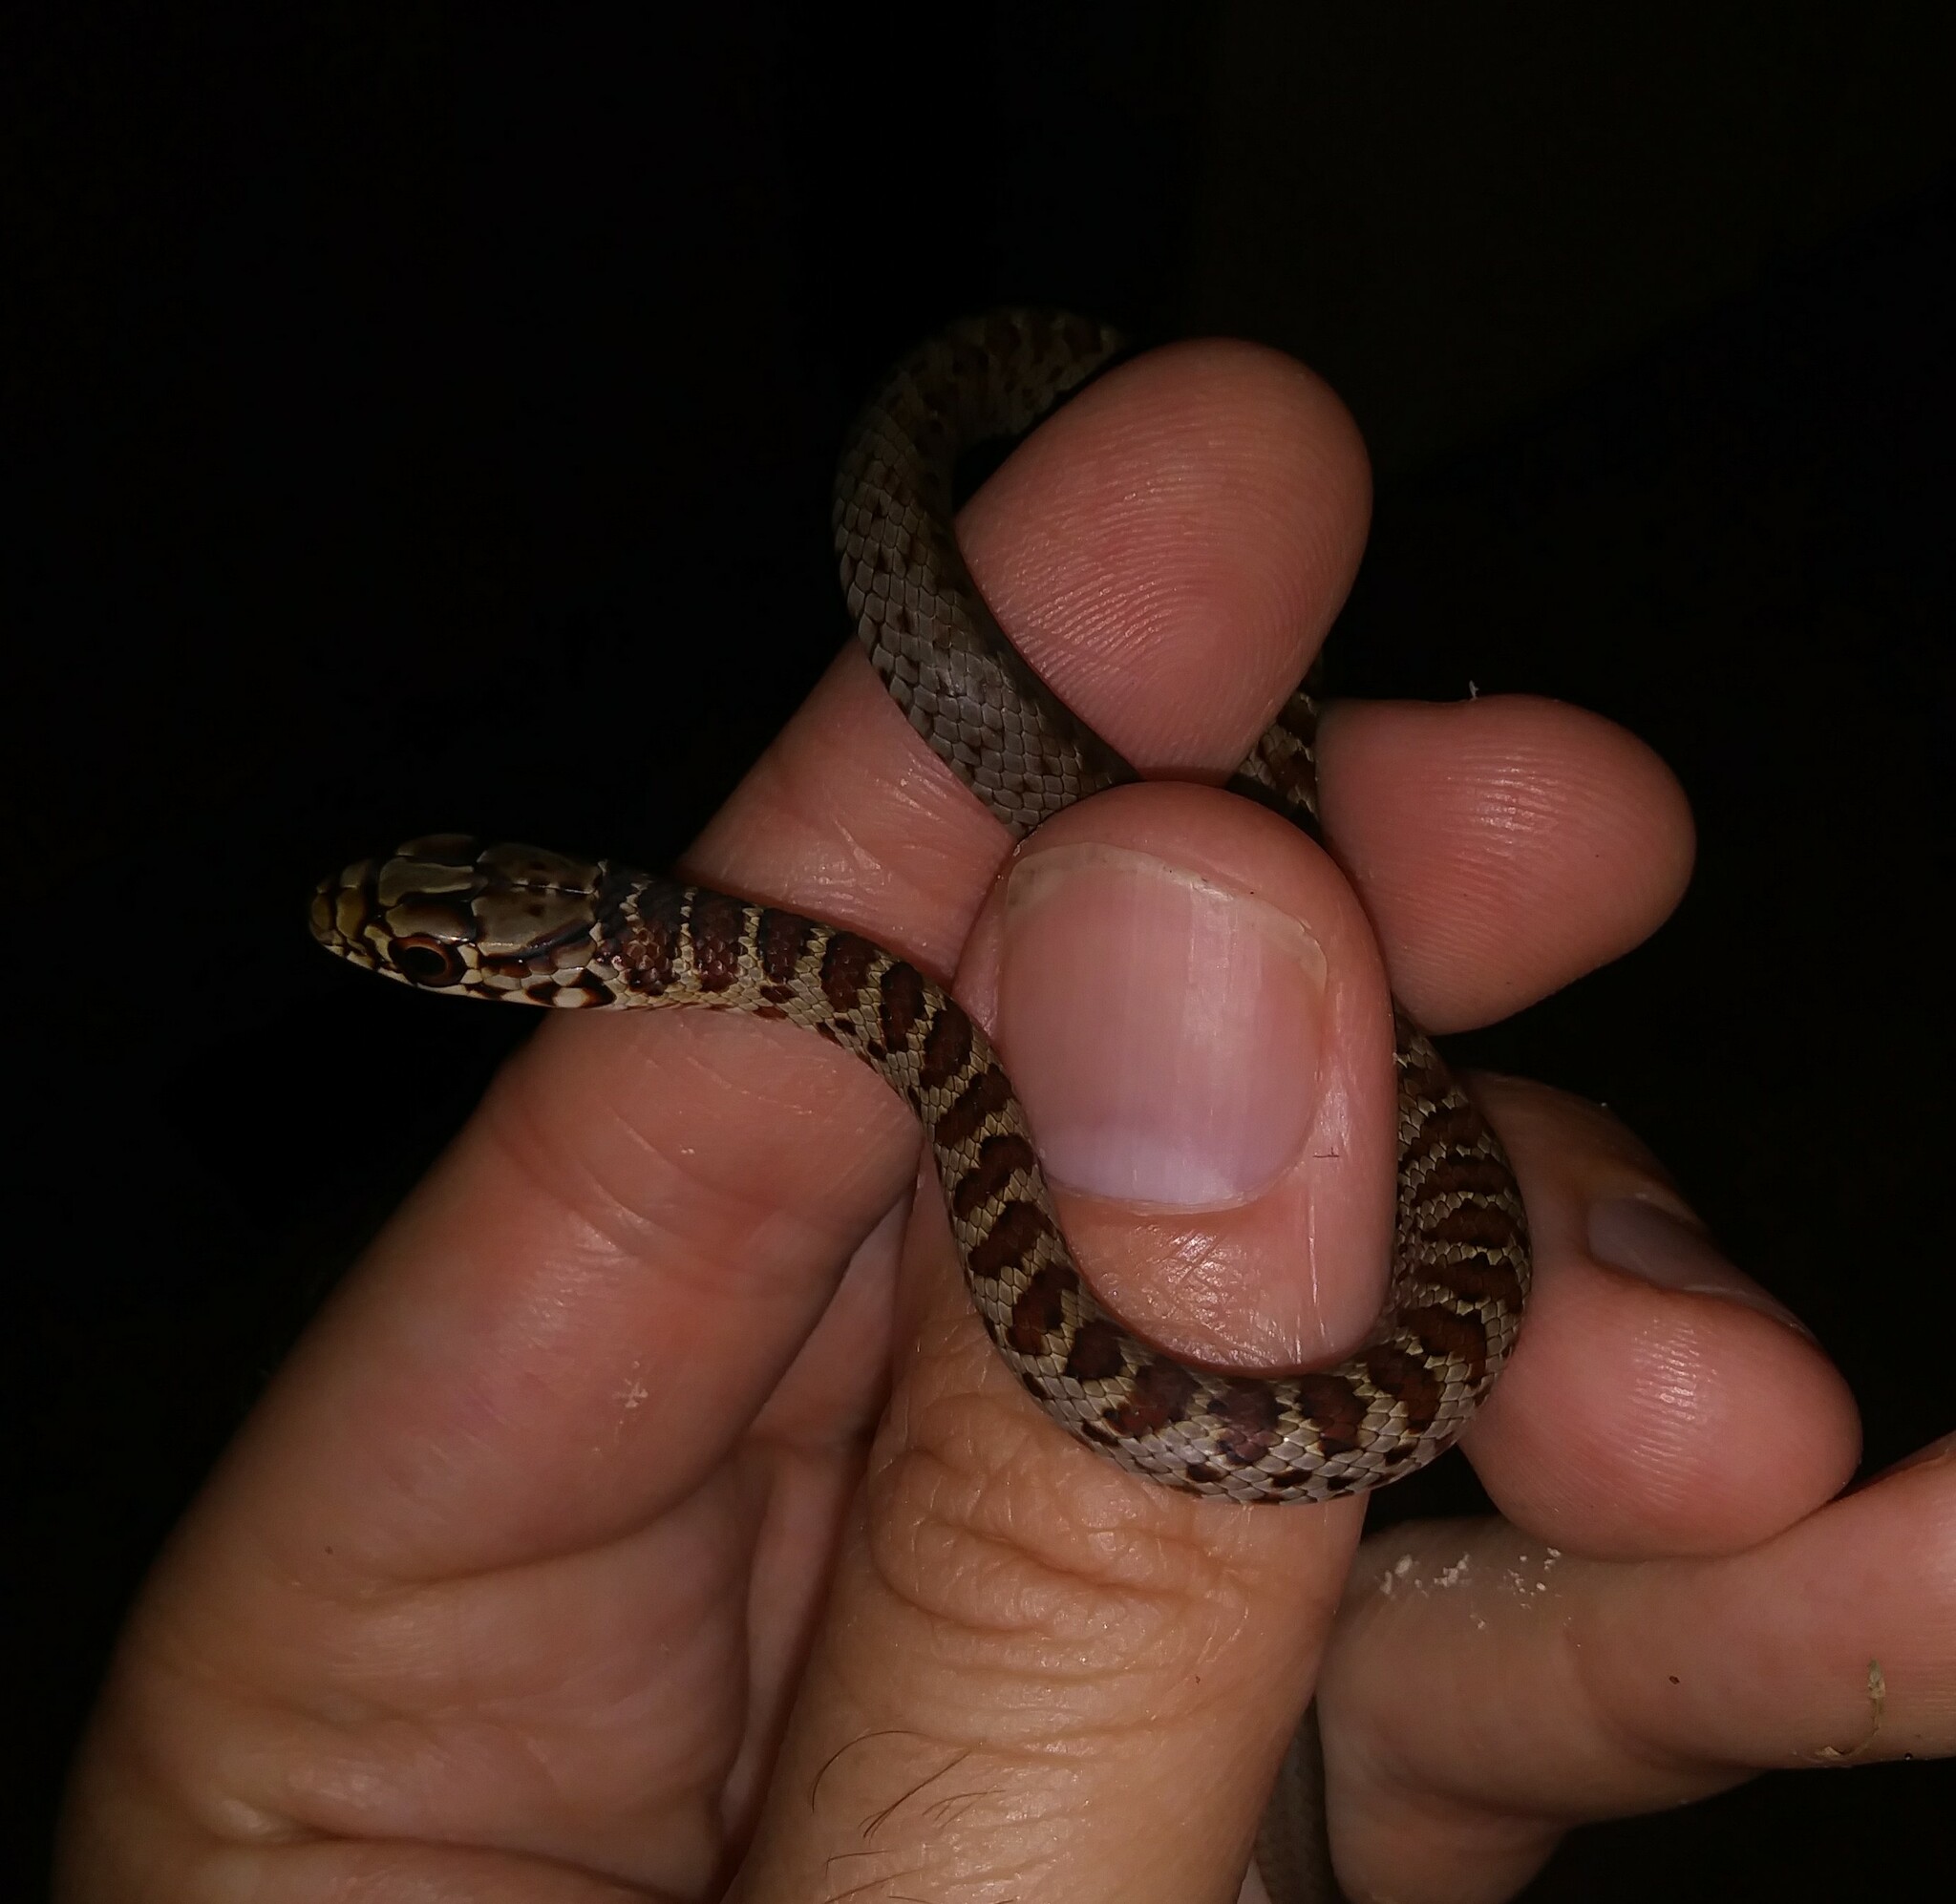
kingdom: Animalia
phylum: Chordata
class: Squamata
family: Colubridae
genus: Coluber
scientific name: Coluber constrictor
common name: Eastern racer
